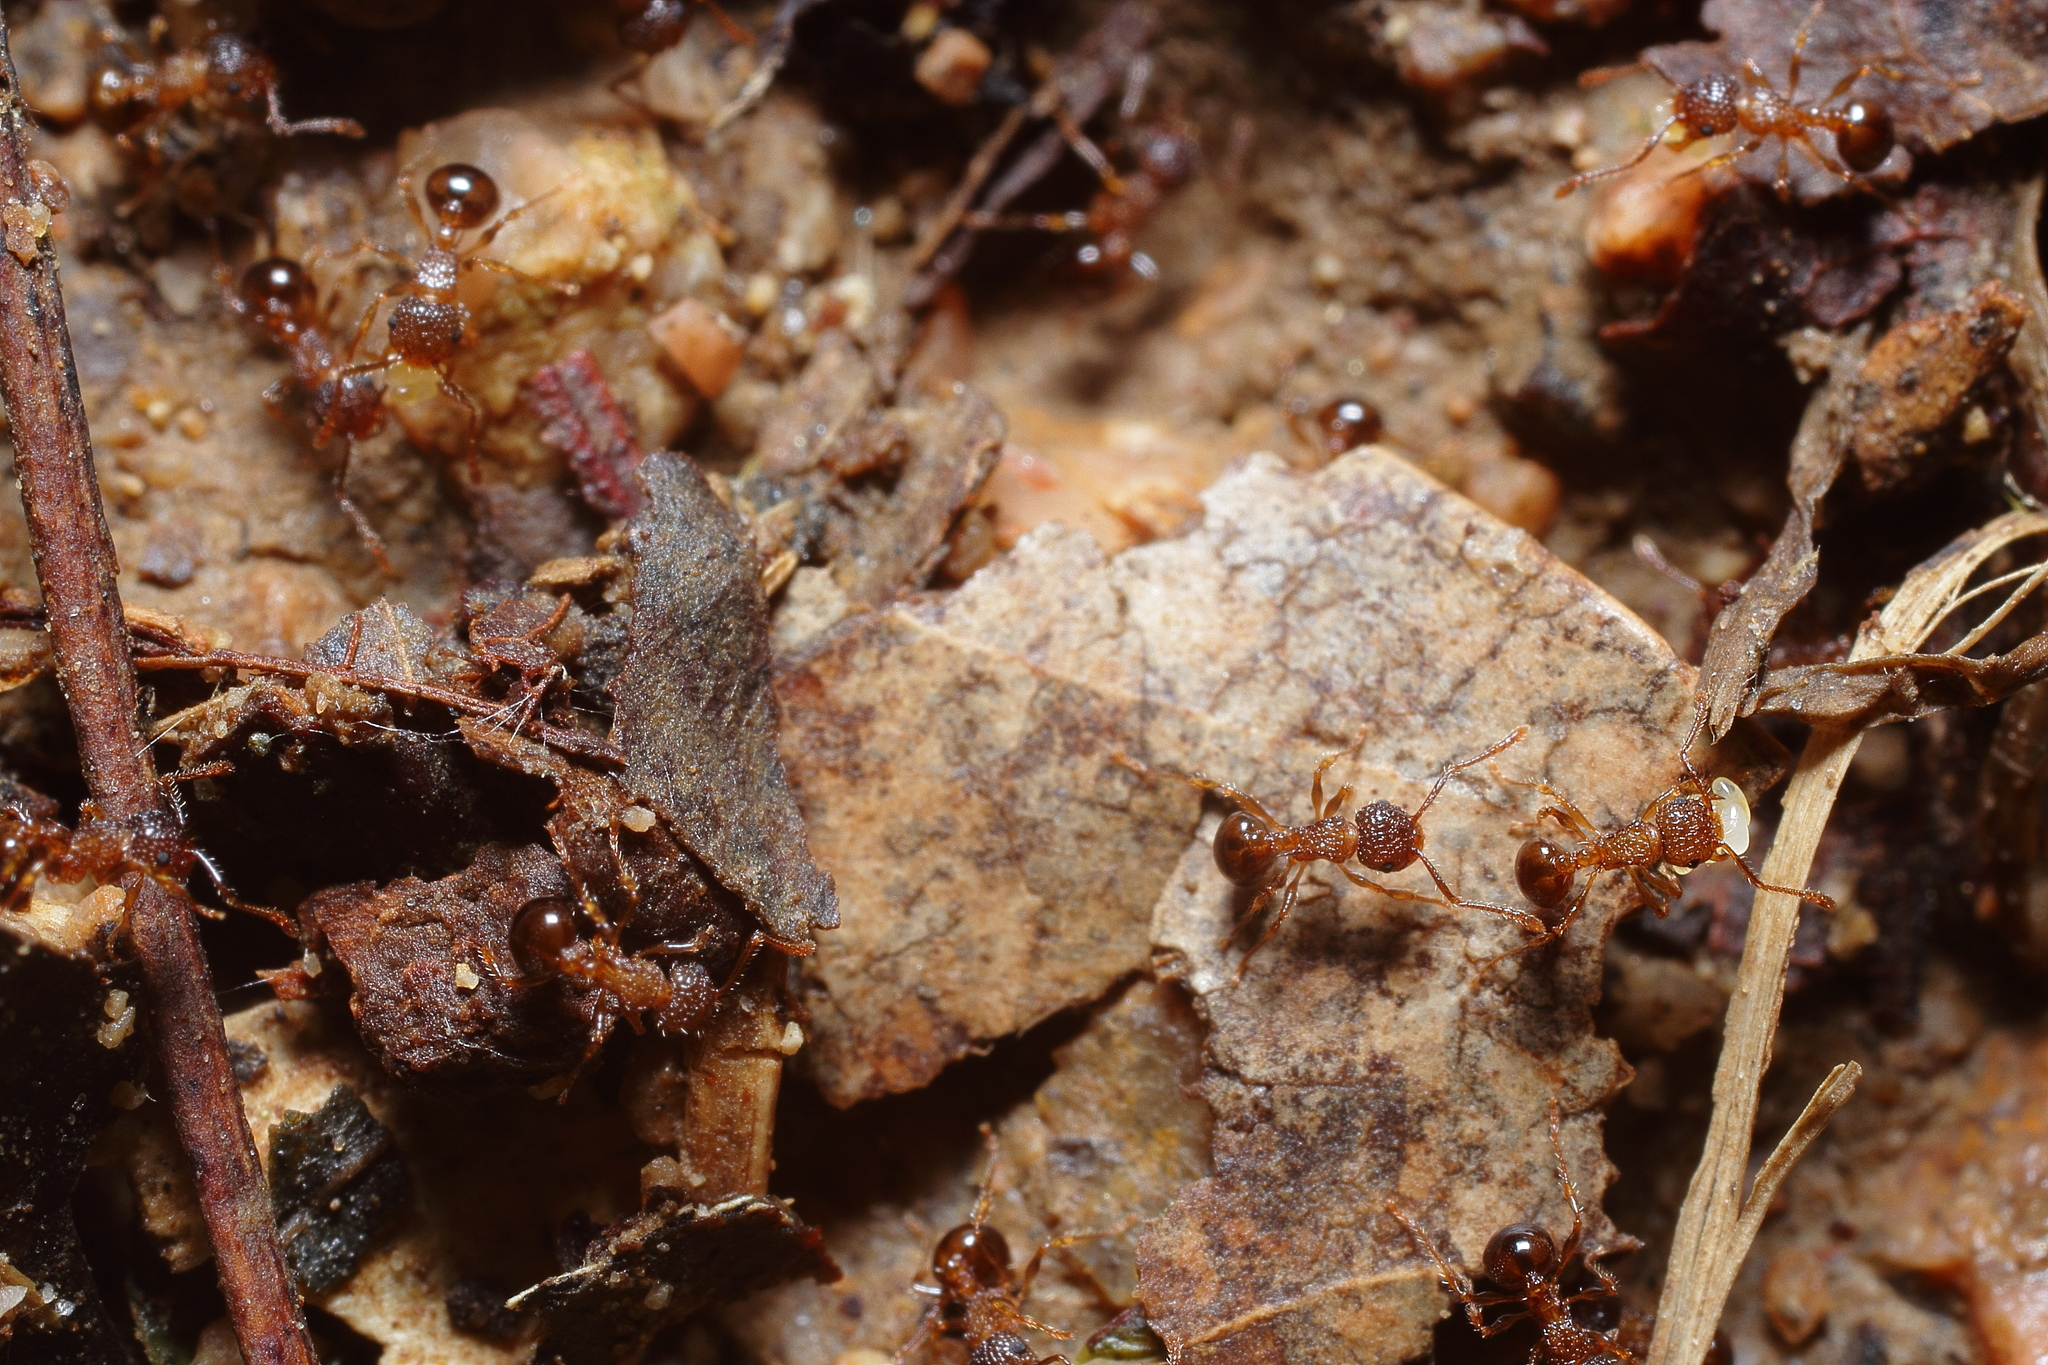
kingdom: Animalia
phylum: Arthropoda
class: Insecta
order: Hymenoptera
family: Formicidae
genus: Pristomyrmex
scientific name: Pristomyrmex punctatus
